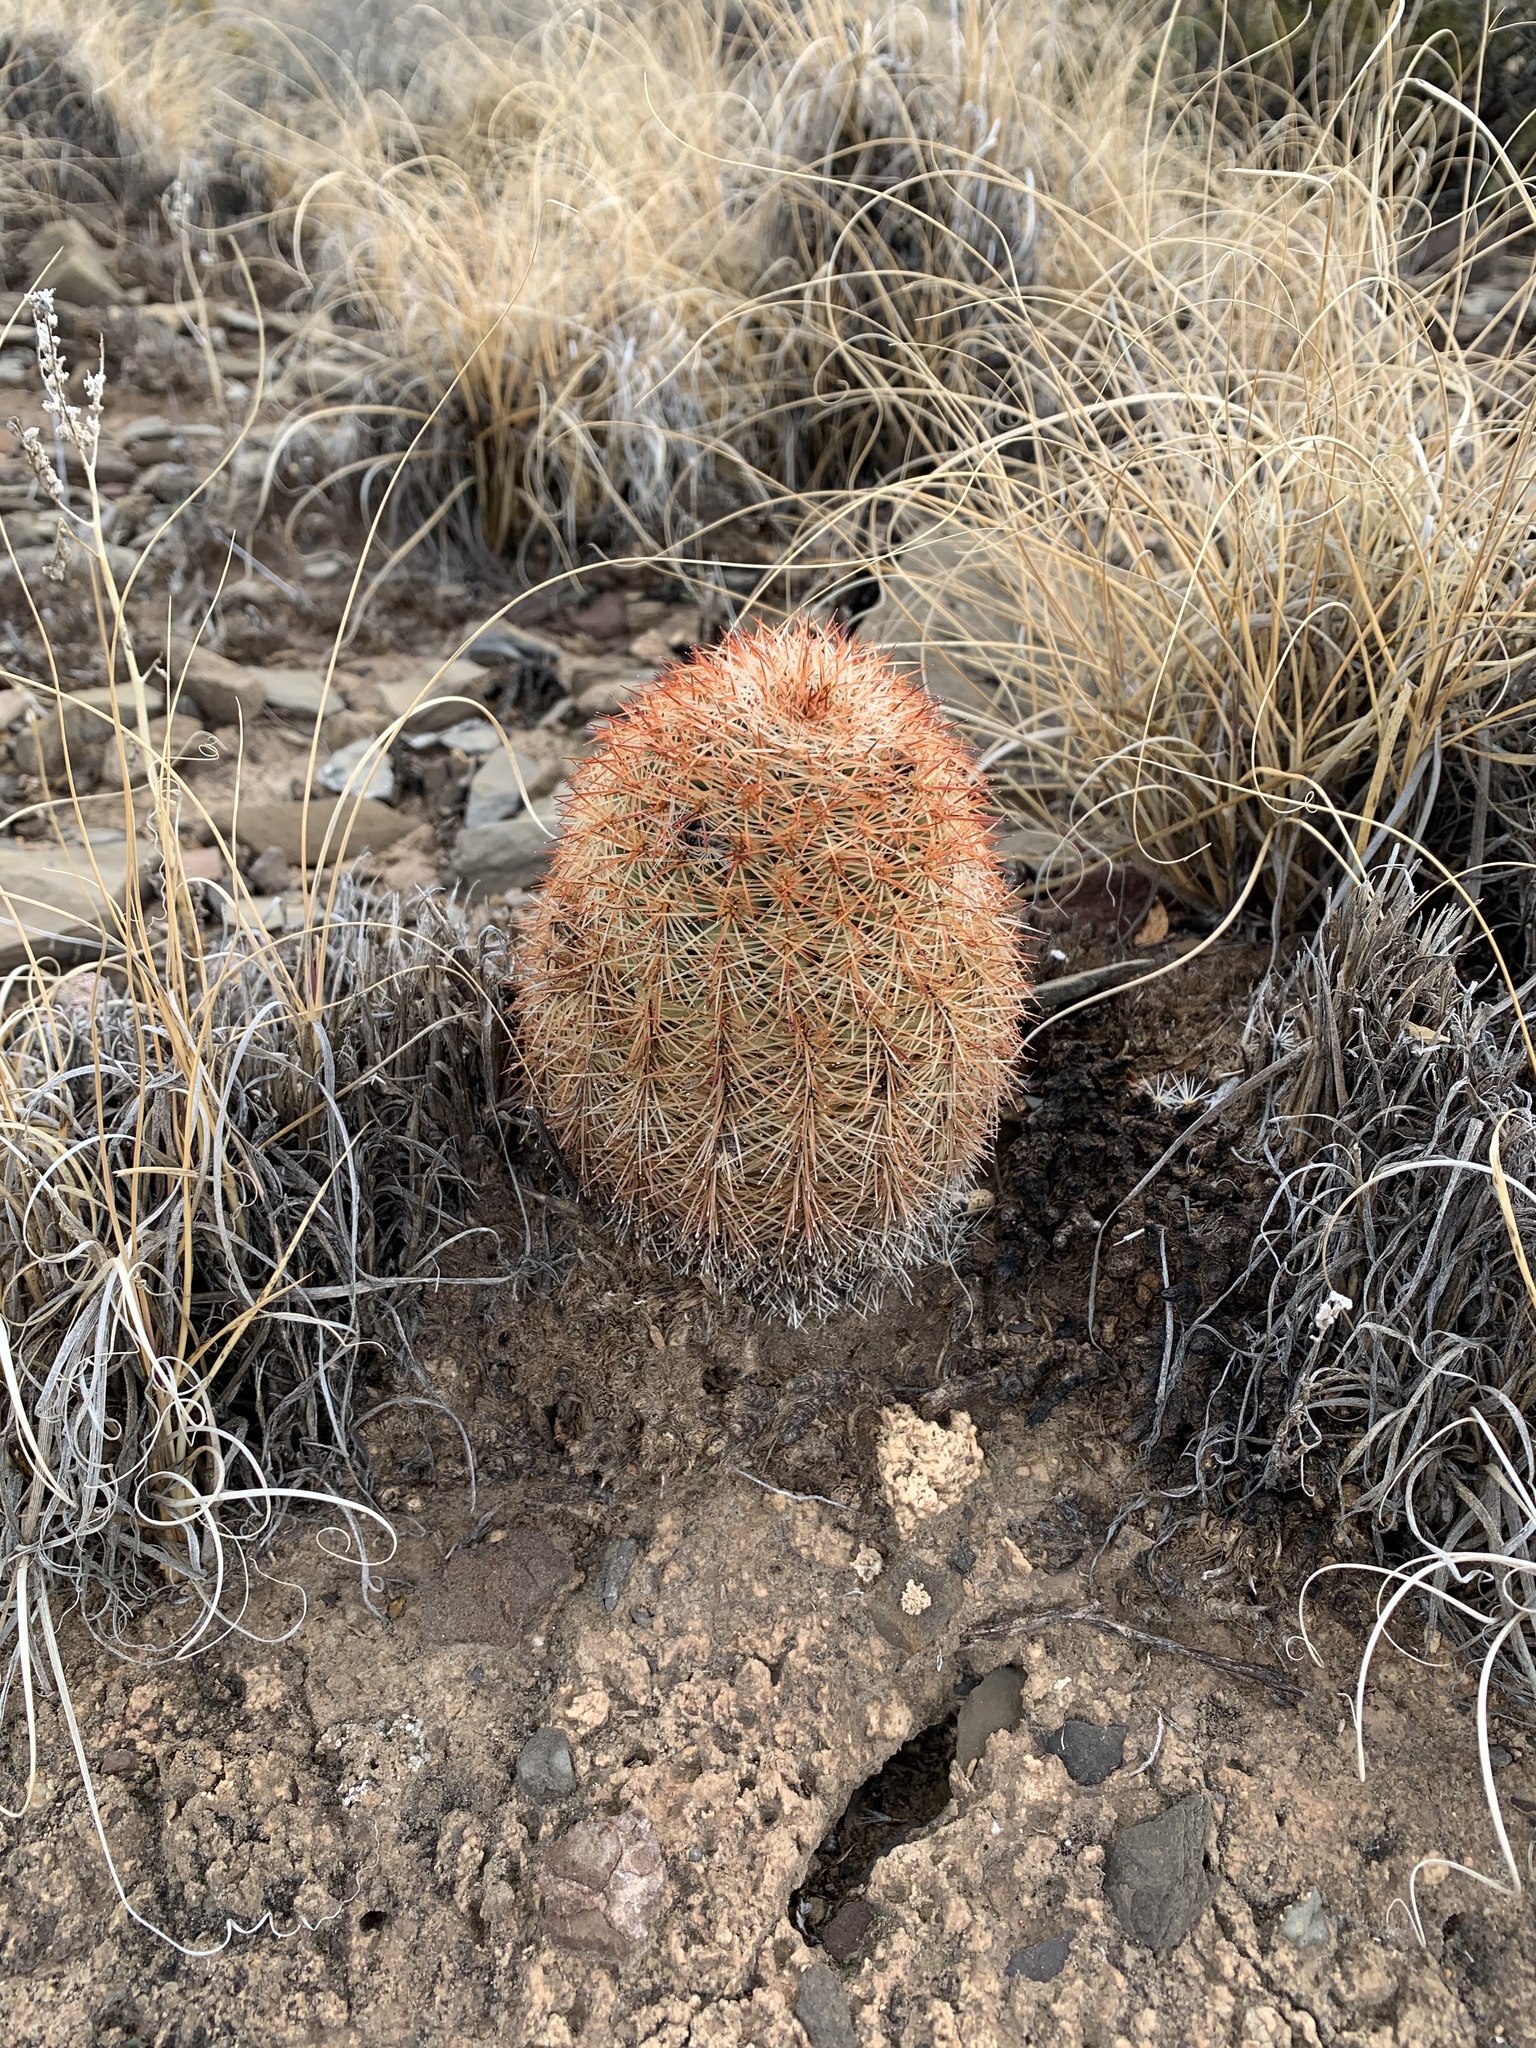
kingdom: Plantae
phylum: Tracheophyta
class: Magnoliopsida
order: Caryophyllales
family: Cactaceae
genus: Echinocereus
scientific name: Echinocereus dasyacanthus
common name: Spiny hedgehog cactus
